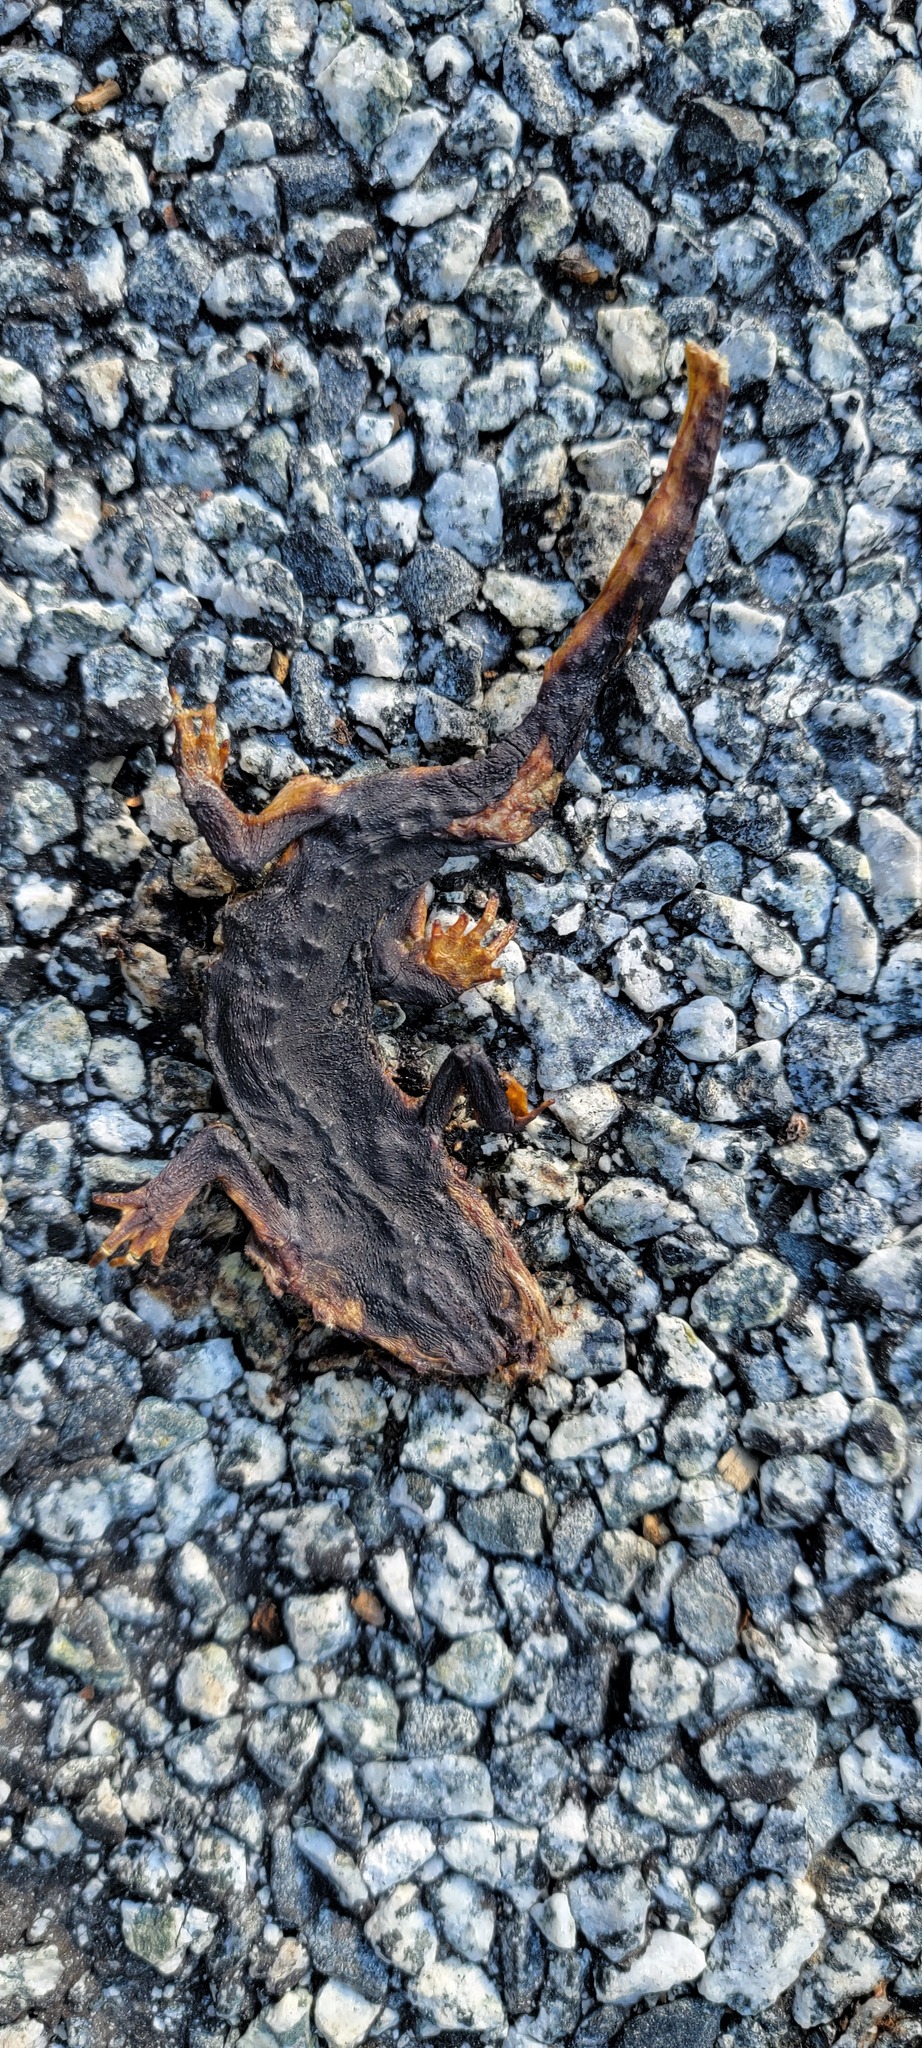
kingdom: Animalia
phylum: Chordata
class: Amphibia
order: Caudata
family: Salamandridae
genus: Taricha
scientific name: Taricha
